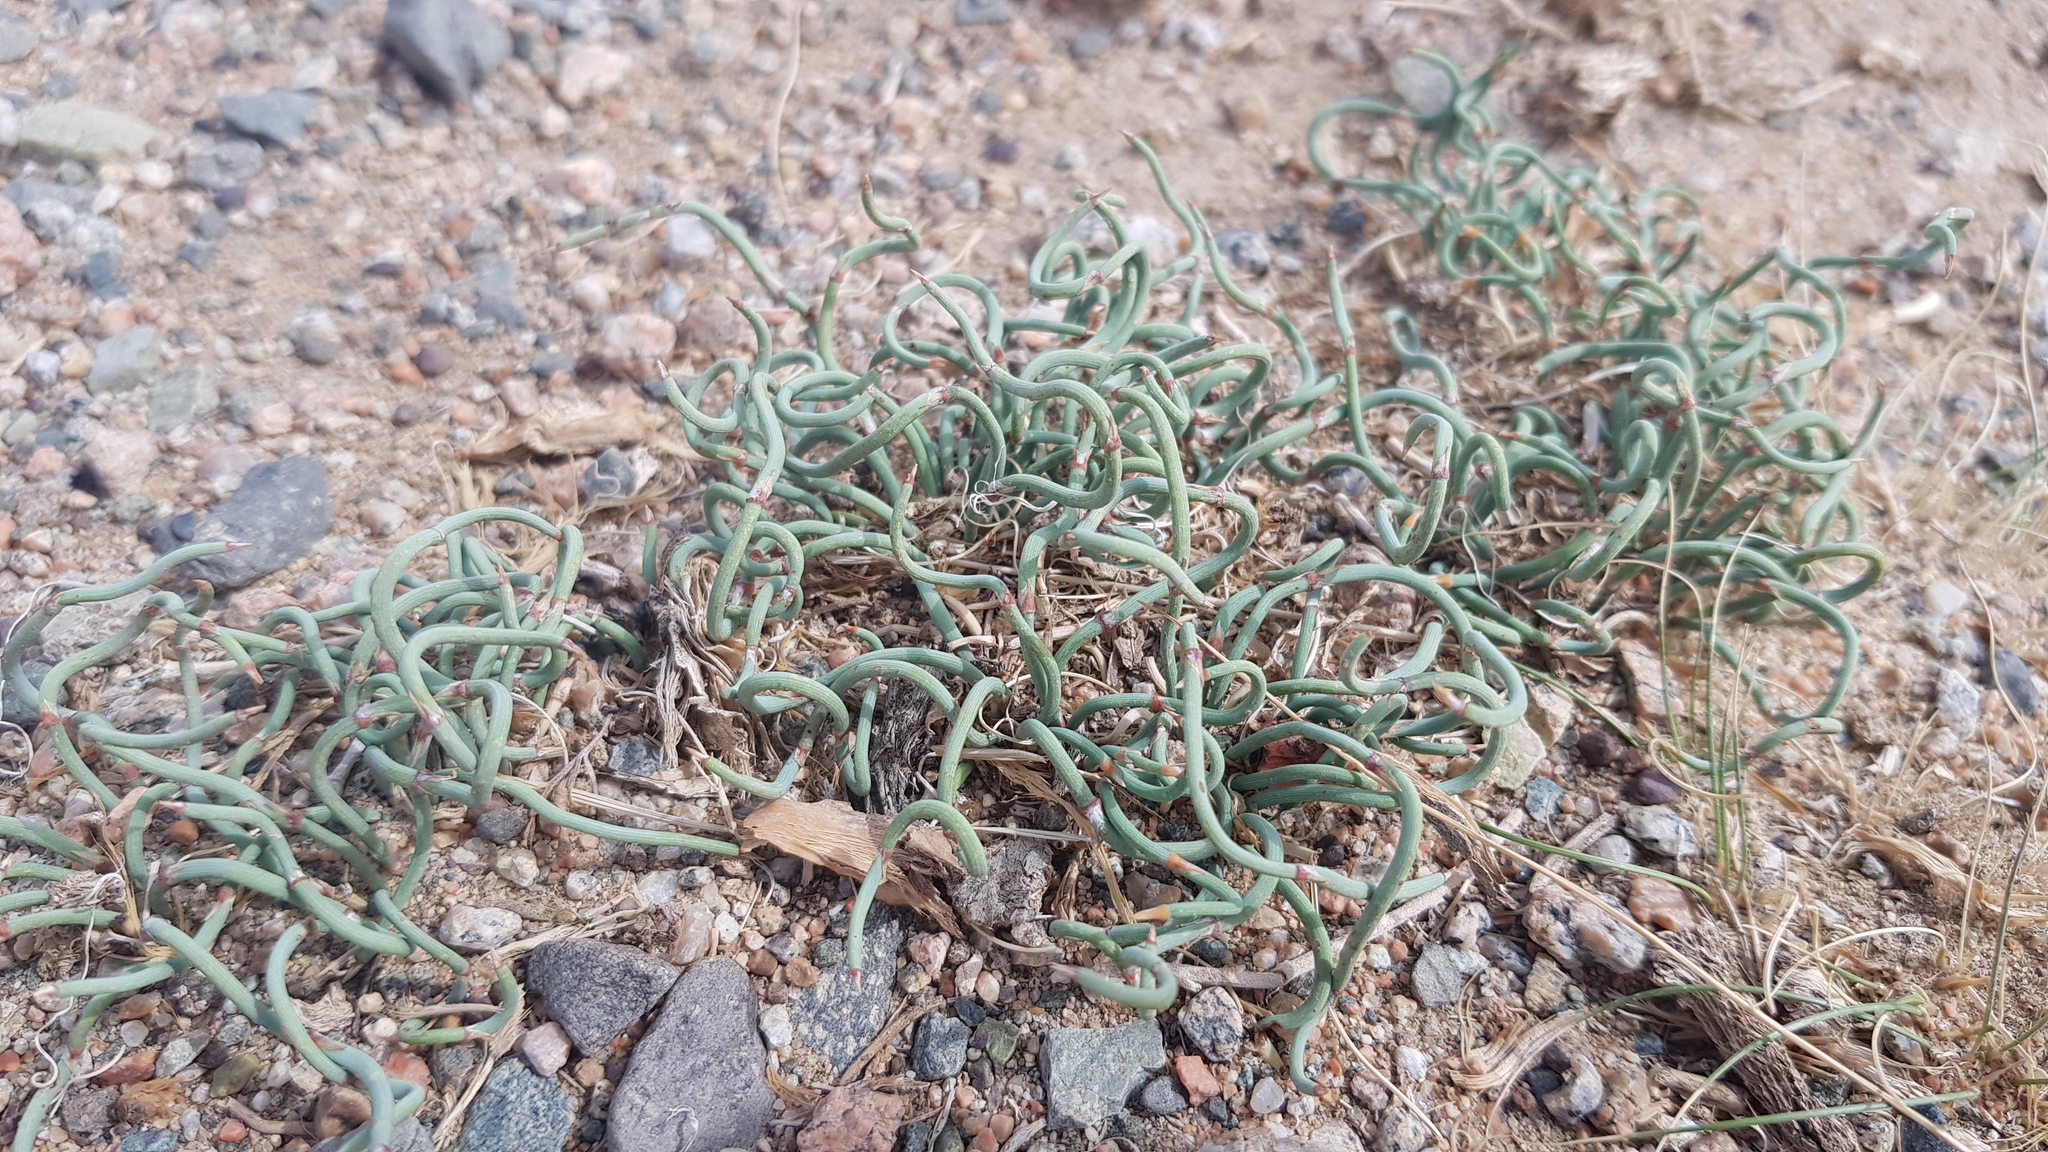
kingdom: Plantae
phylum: Tracheophyta
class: Gnetopsida
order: Ephedrales
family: Ephedraceae
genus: Ephedra
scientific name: Ephedra sinica
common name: Chinese ephedra
